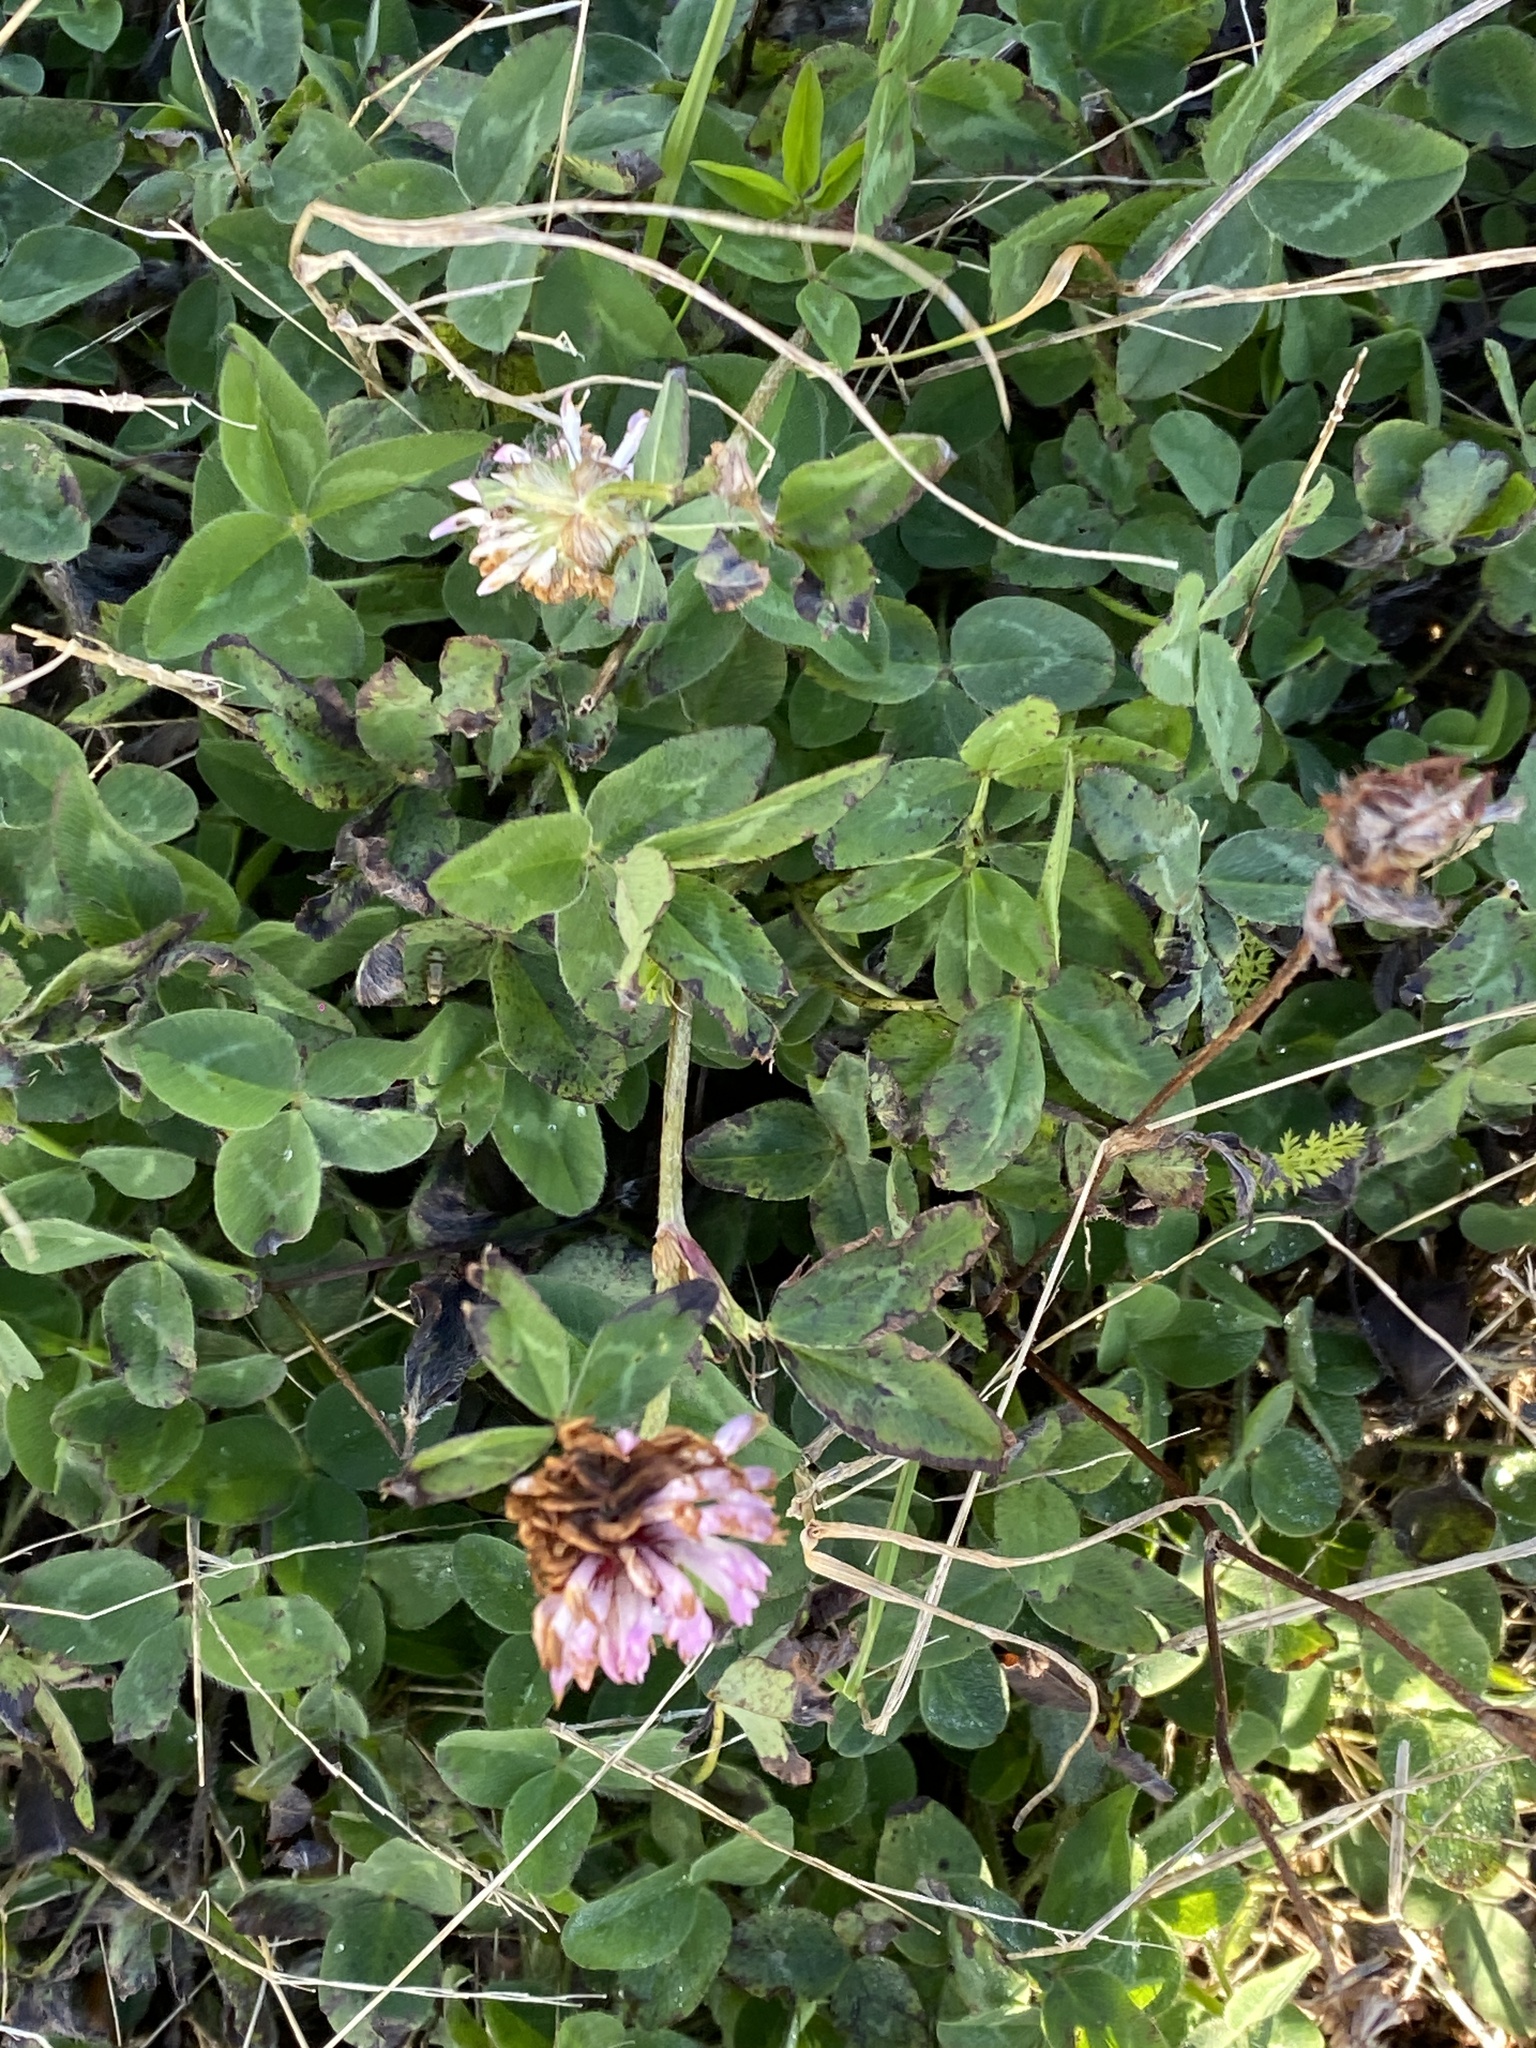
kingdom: Plantae
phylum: Tracheophyta
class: Magnoliopsida
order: Fabales
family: Fabaceae
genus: Trifolium
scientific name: Trifolium pratense
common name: Red clover
